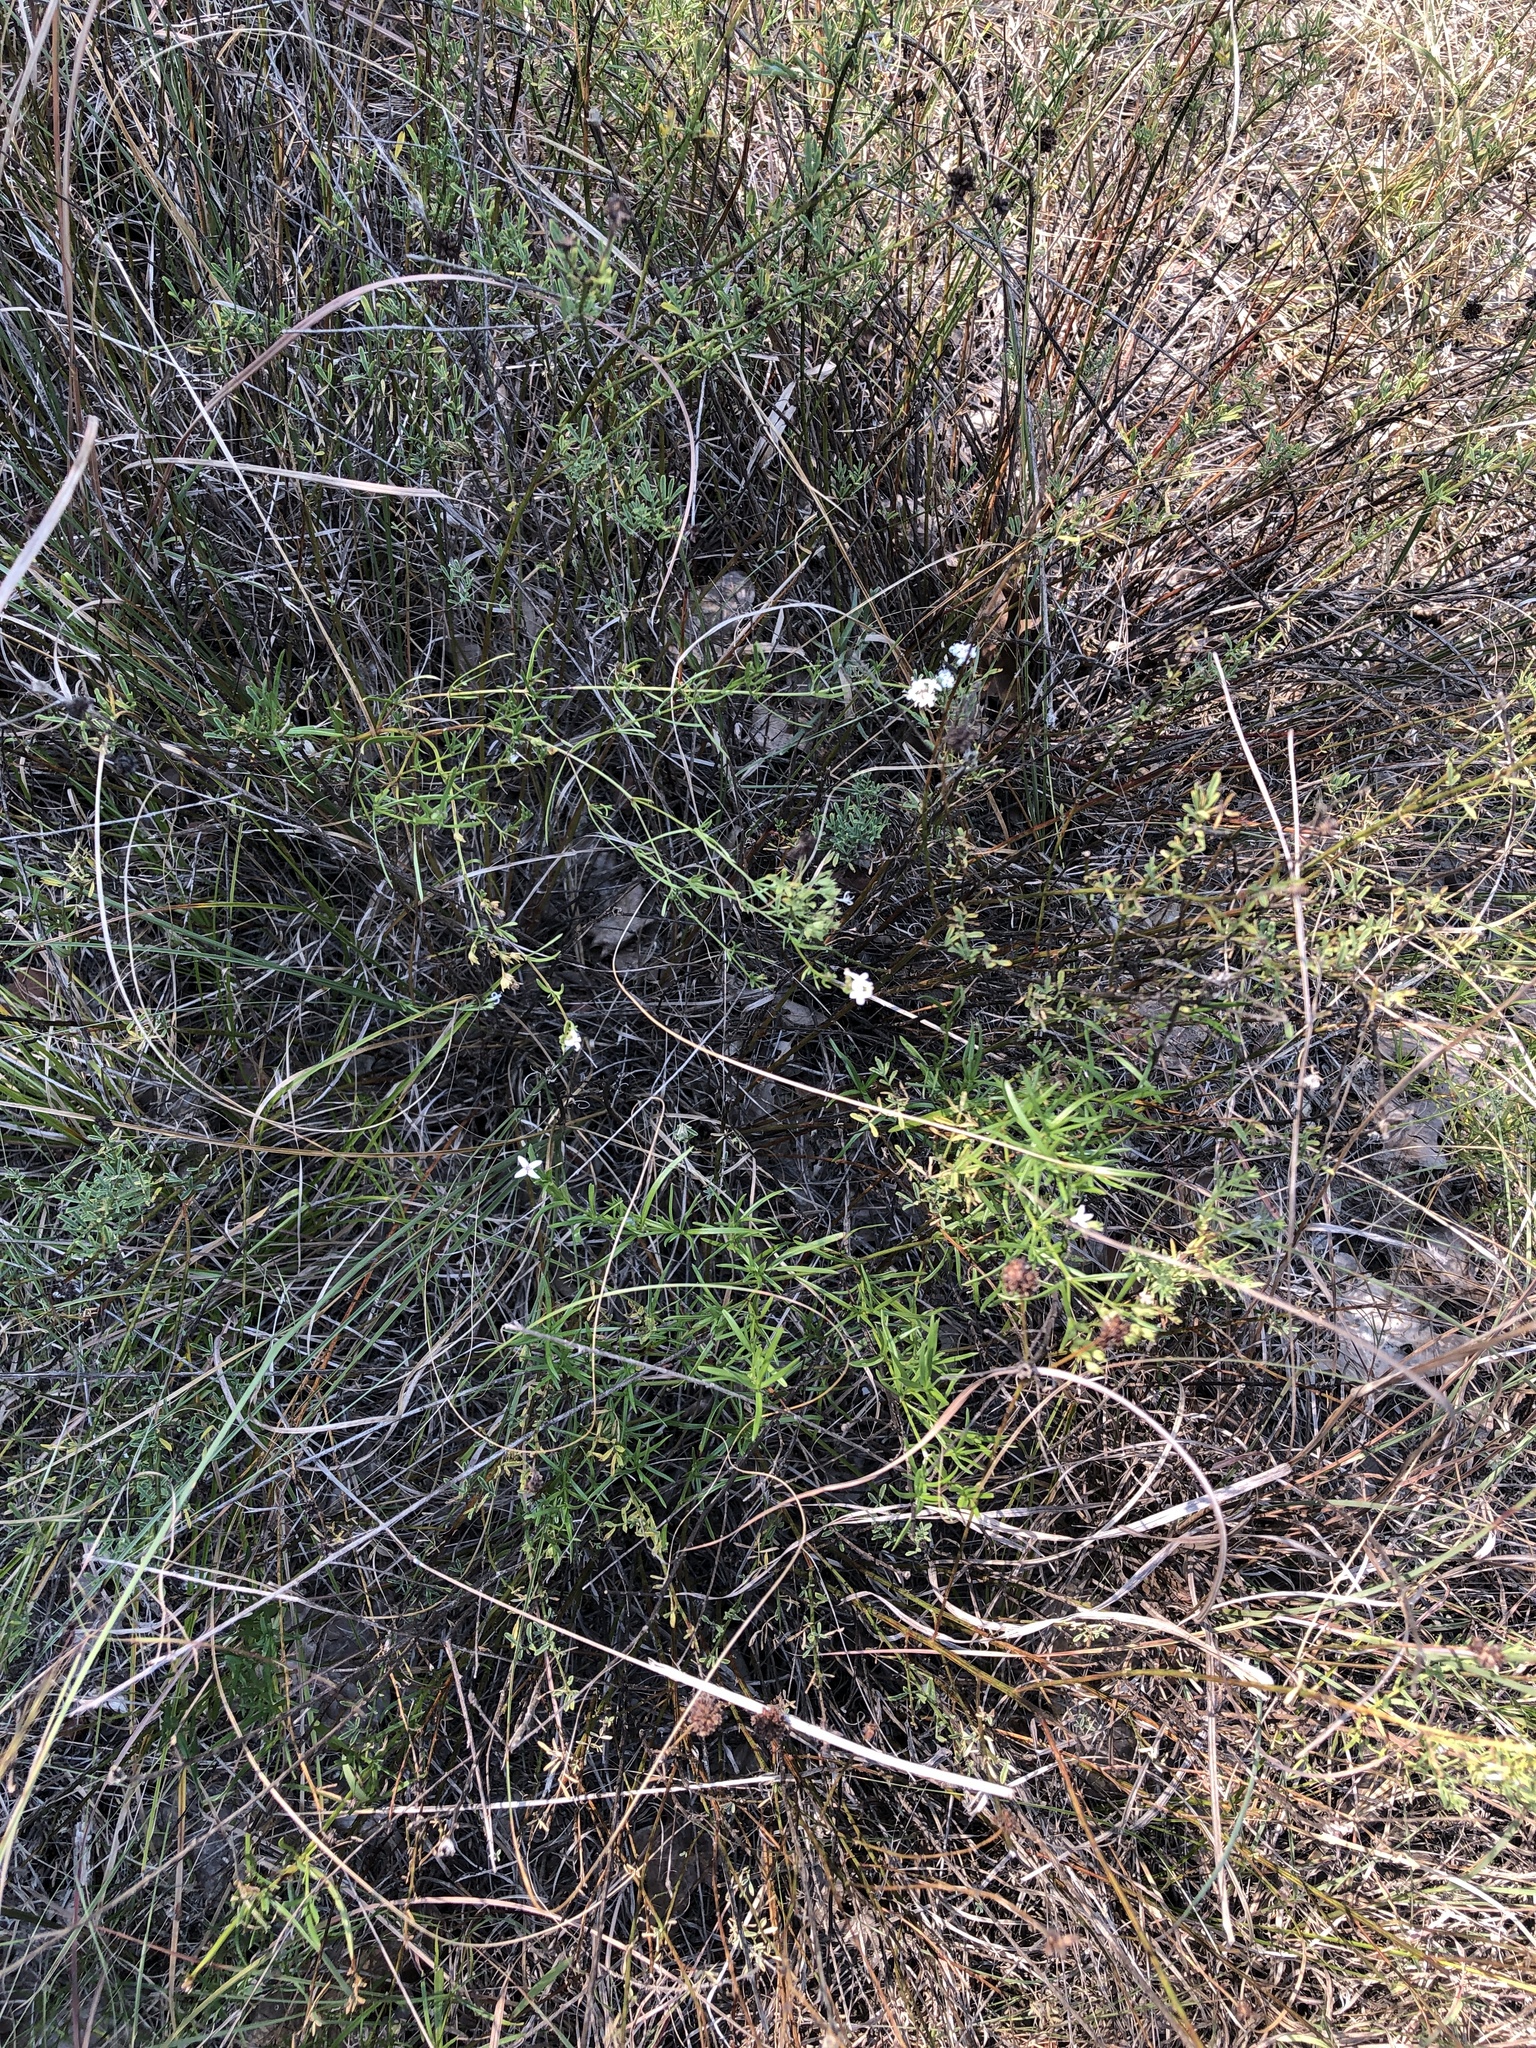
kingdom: Plantae
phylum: Tracheophyta
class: Magnoliopsida
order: Gentianales
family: Rubiaceae
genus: Stenaria
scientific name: Stenaria nigricans
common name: Diamondflowers
